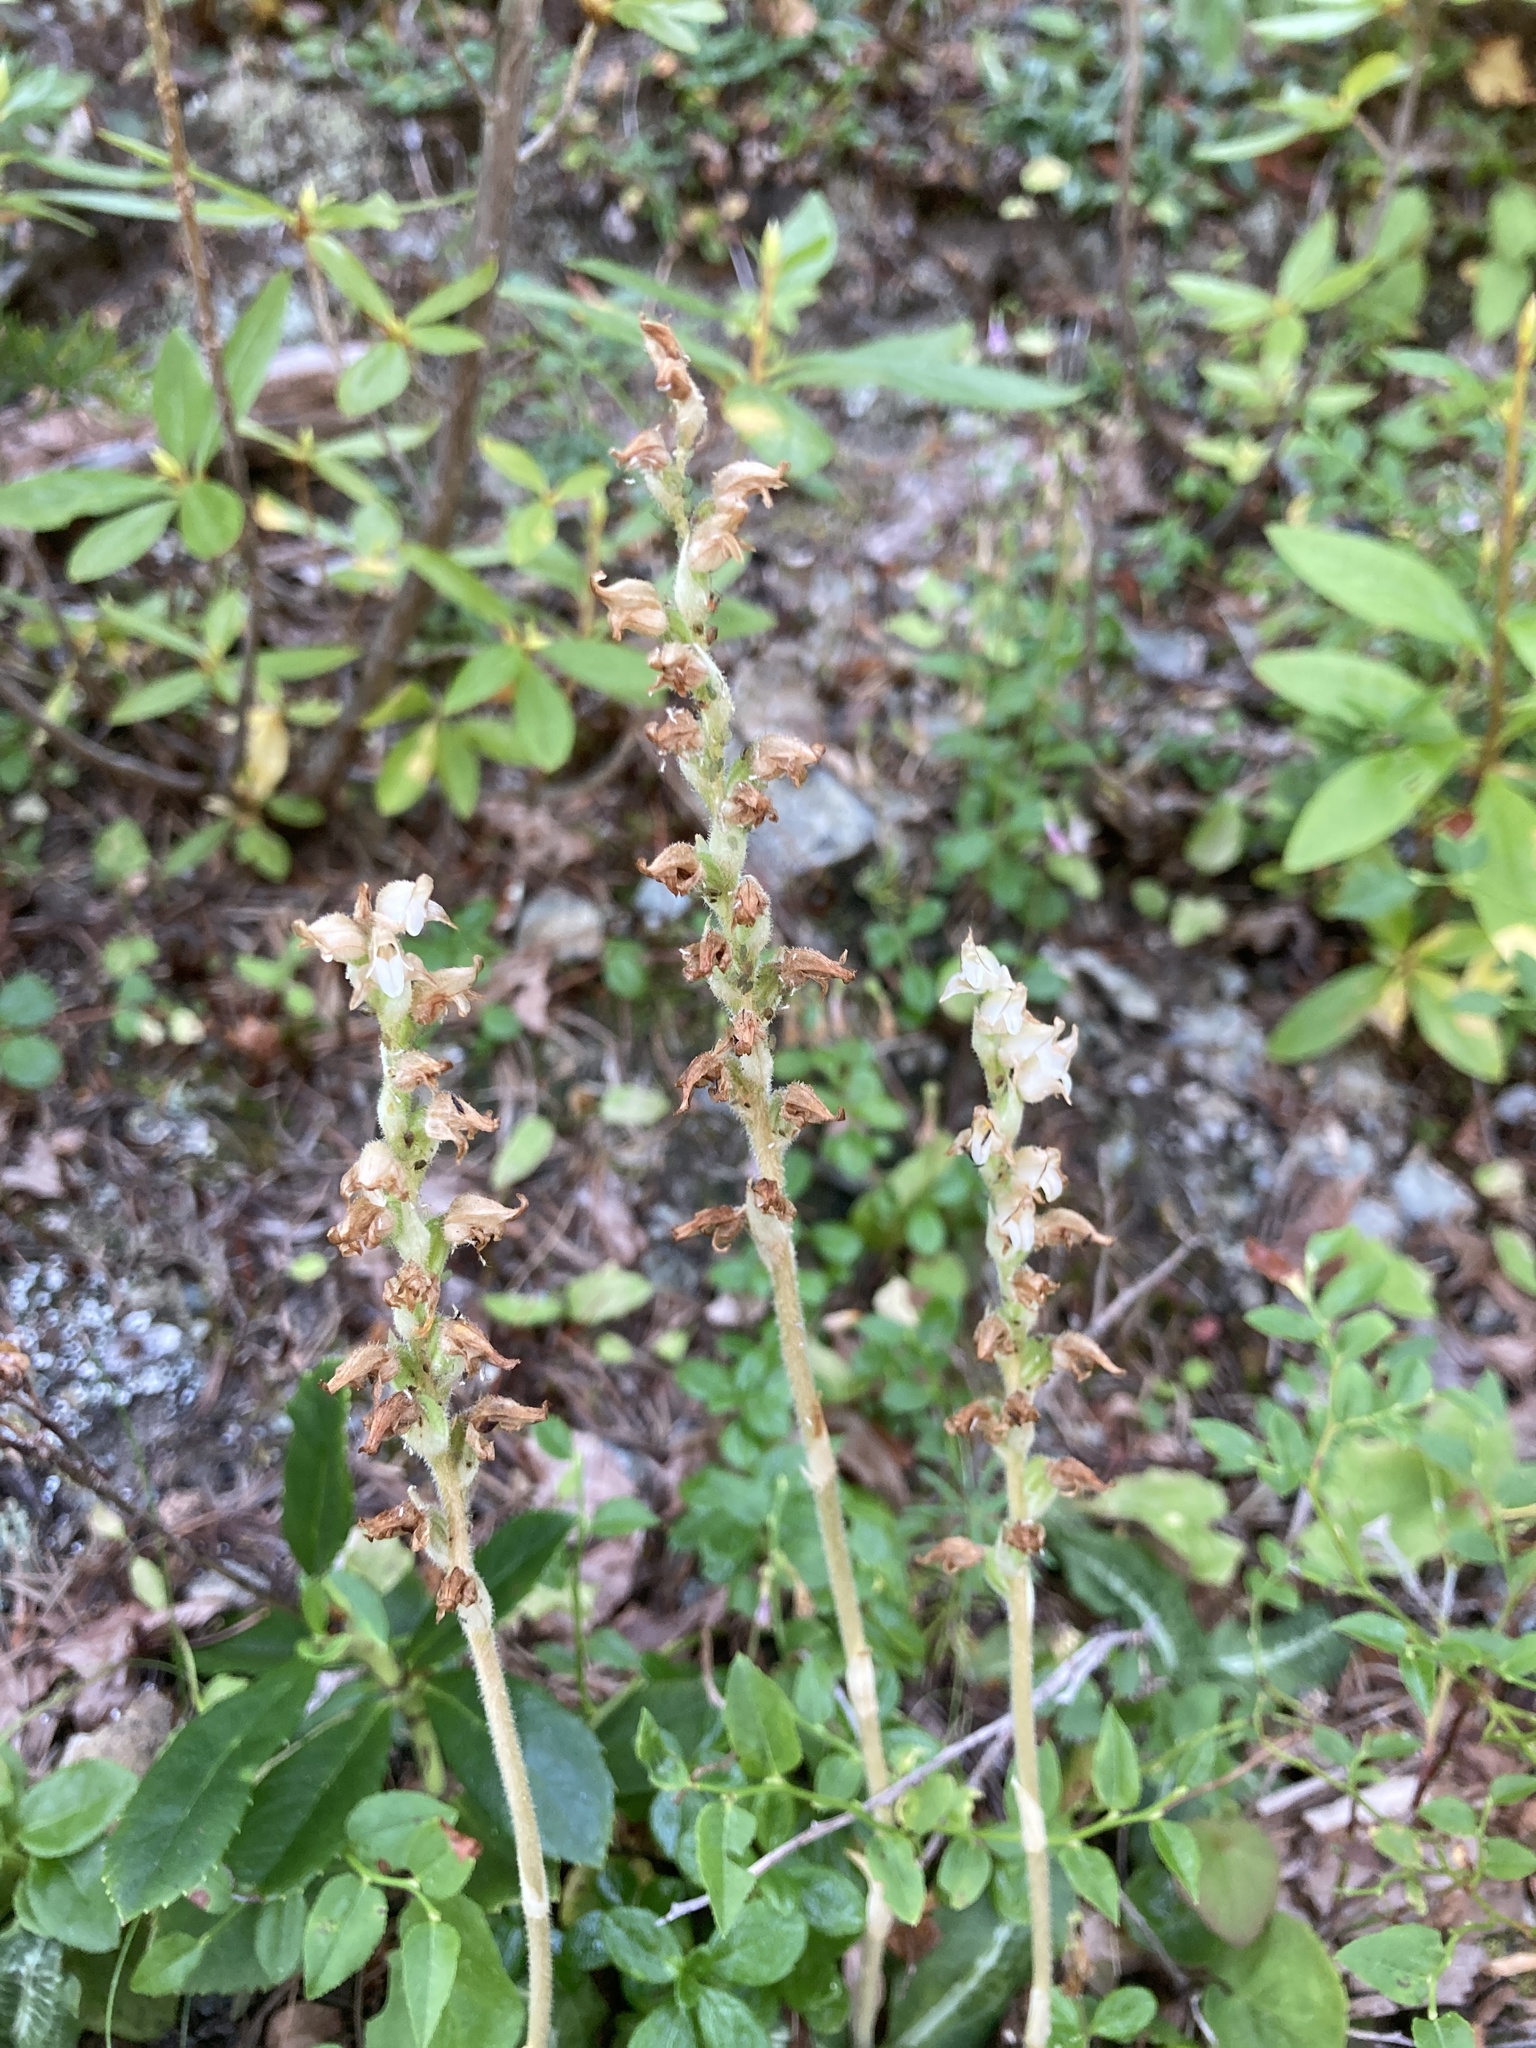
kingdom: Plantae
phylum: Tracheophyta
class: Liliopsida
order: Asparagales
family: Orchidaceae
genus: Goodyera
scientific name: Goodyera oblongifolia
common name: Giant rattlesnake-plantain
